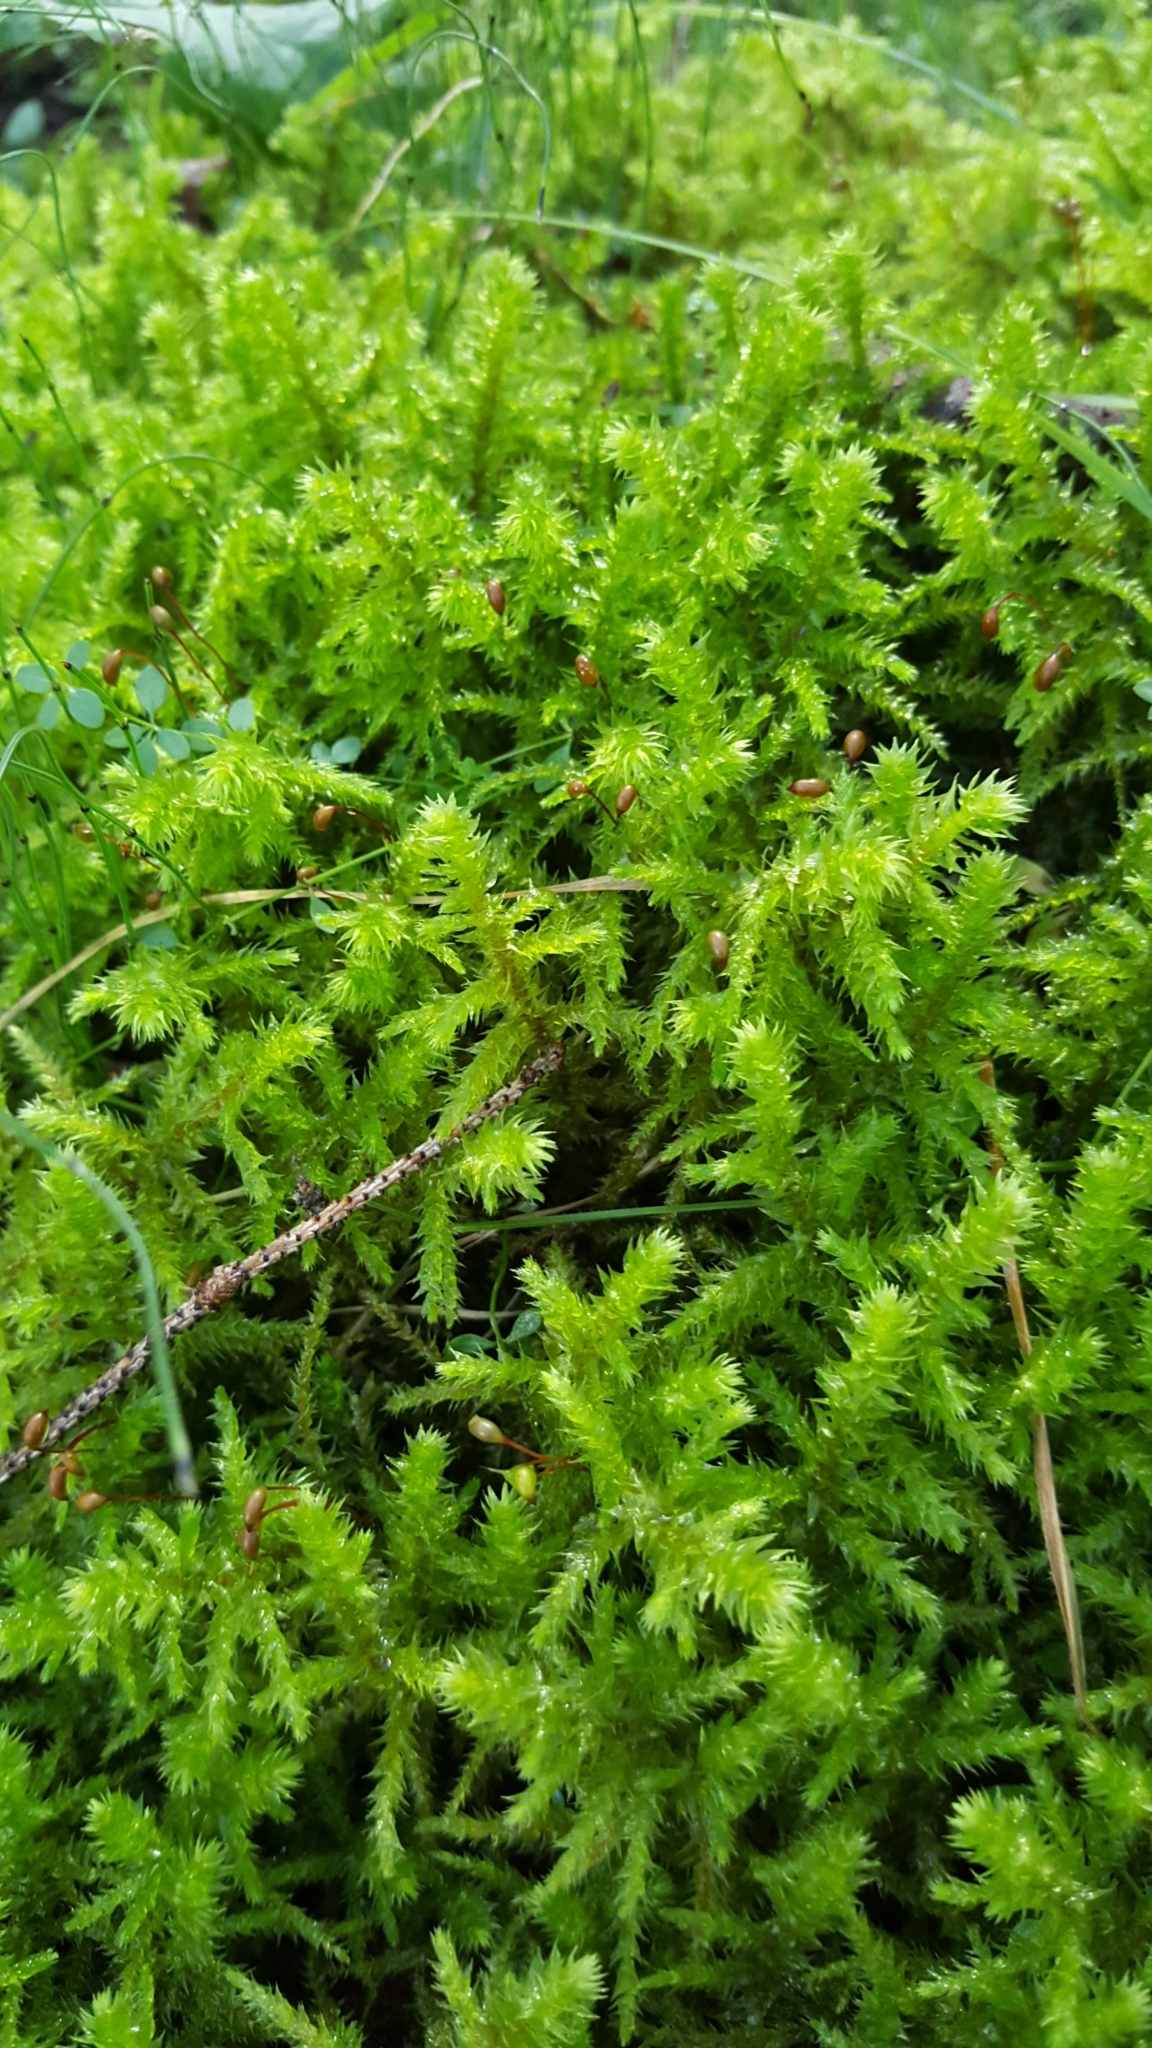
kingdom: Plantae
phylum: Bryophyta
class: Bryopsida
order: Hypnales
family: Hylocomiaceae
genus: Hylocomiadelphus
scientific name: Hylocomiadelphus triquetrus
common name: Rough goose neck moss
